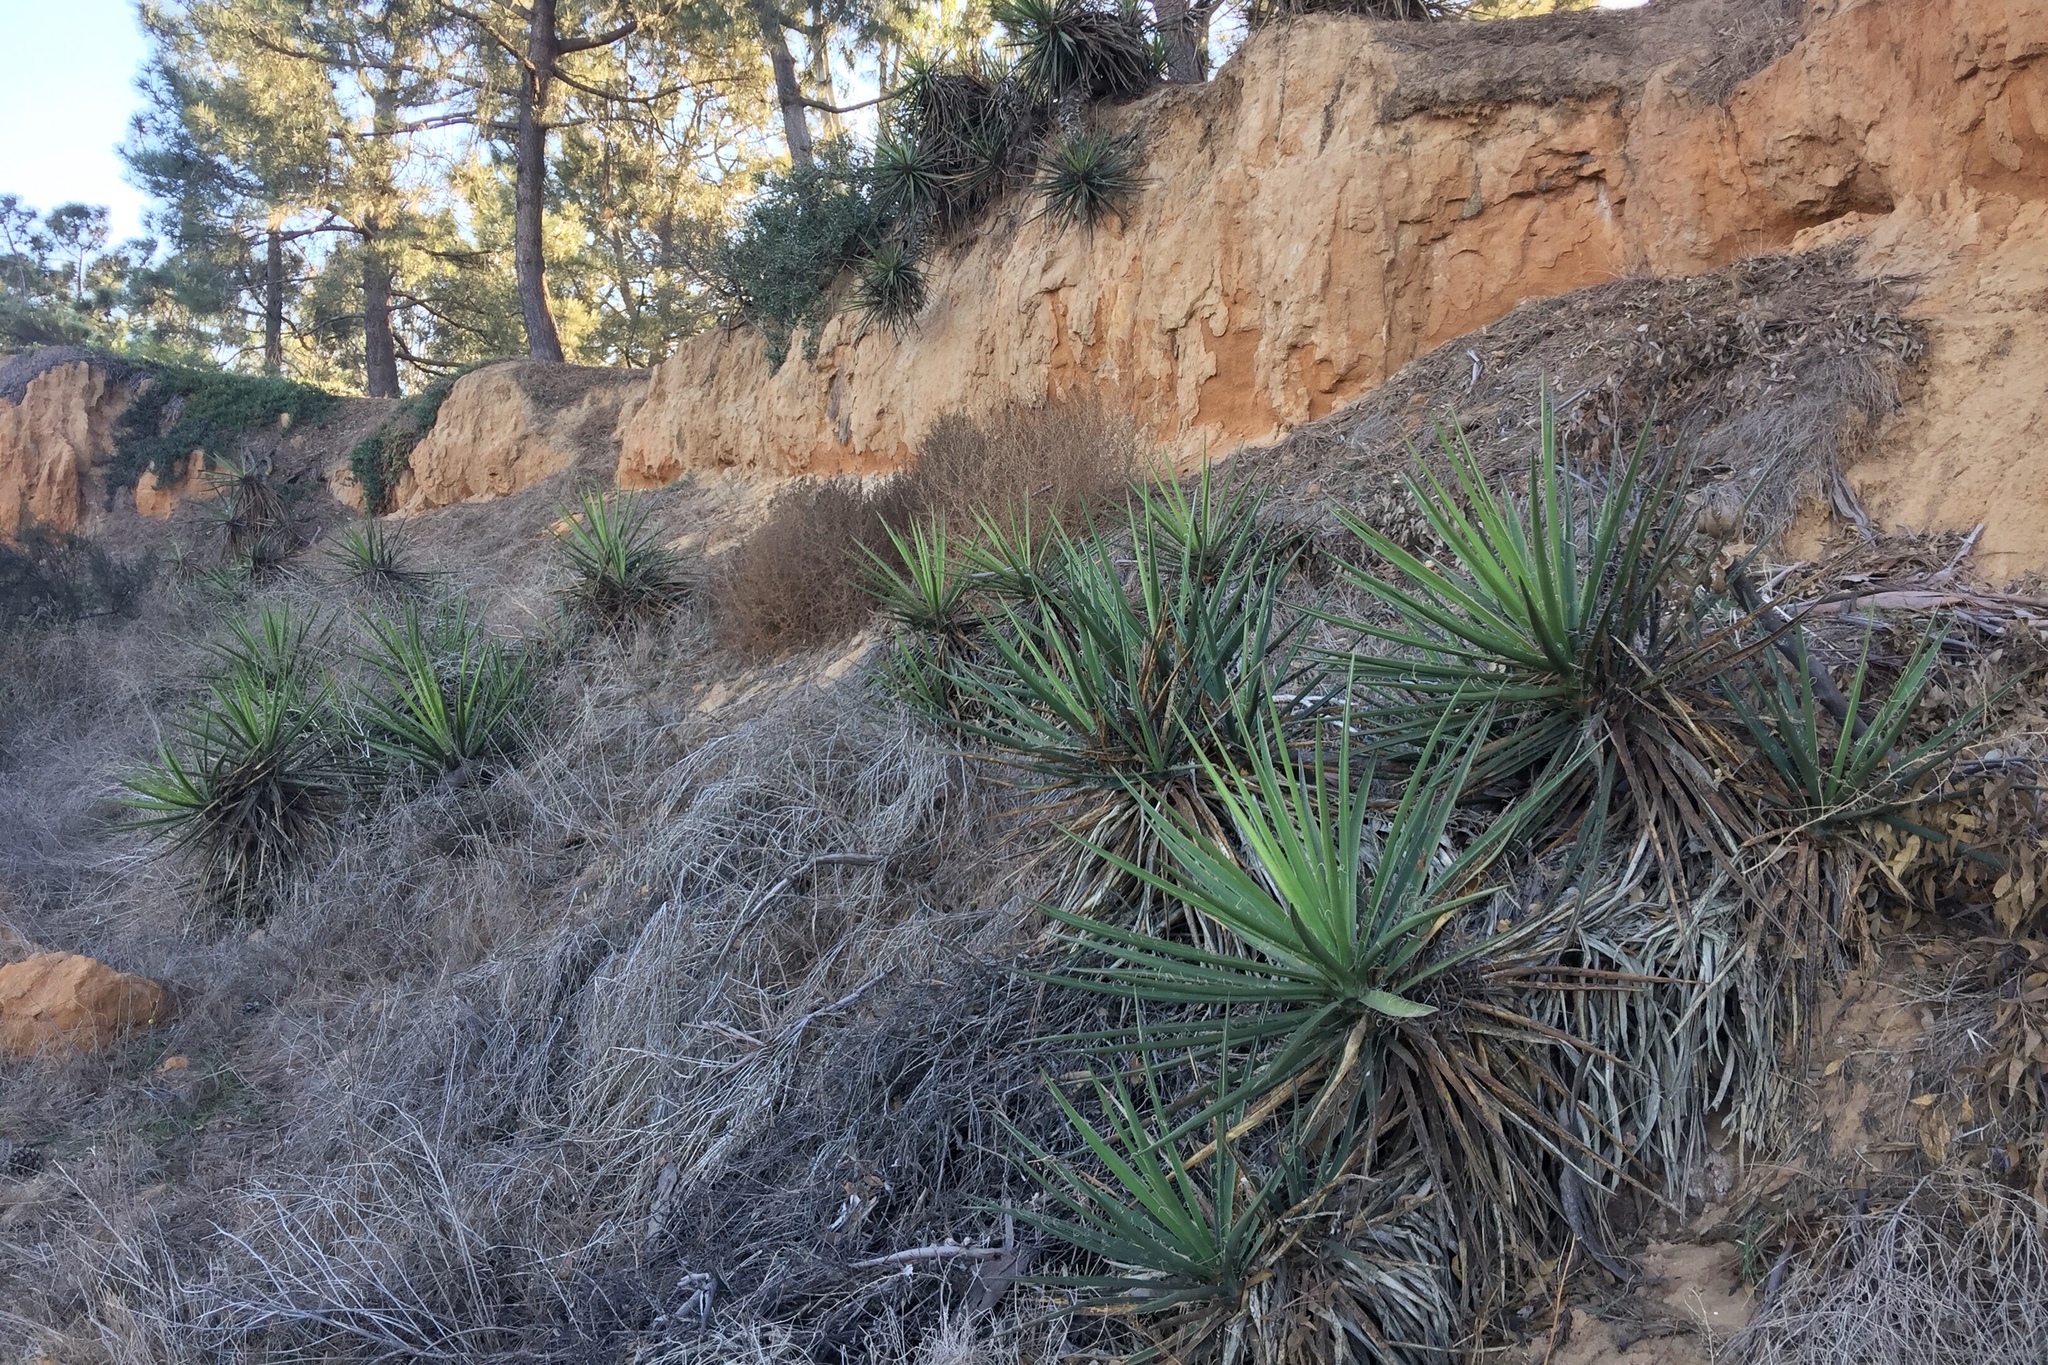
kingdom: Plantae
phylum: Tracheophyta
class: Liliopsida
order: Asparagales
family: Asparagaceae
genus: Yucca
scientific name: Yucca schidigera
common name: Mojave yucca
